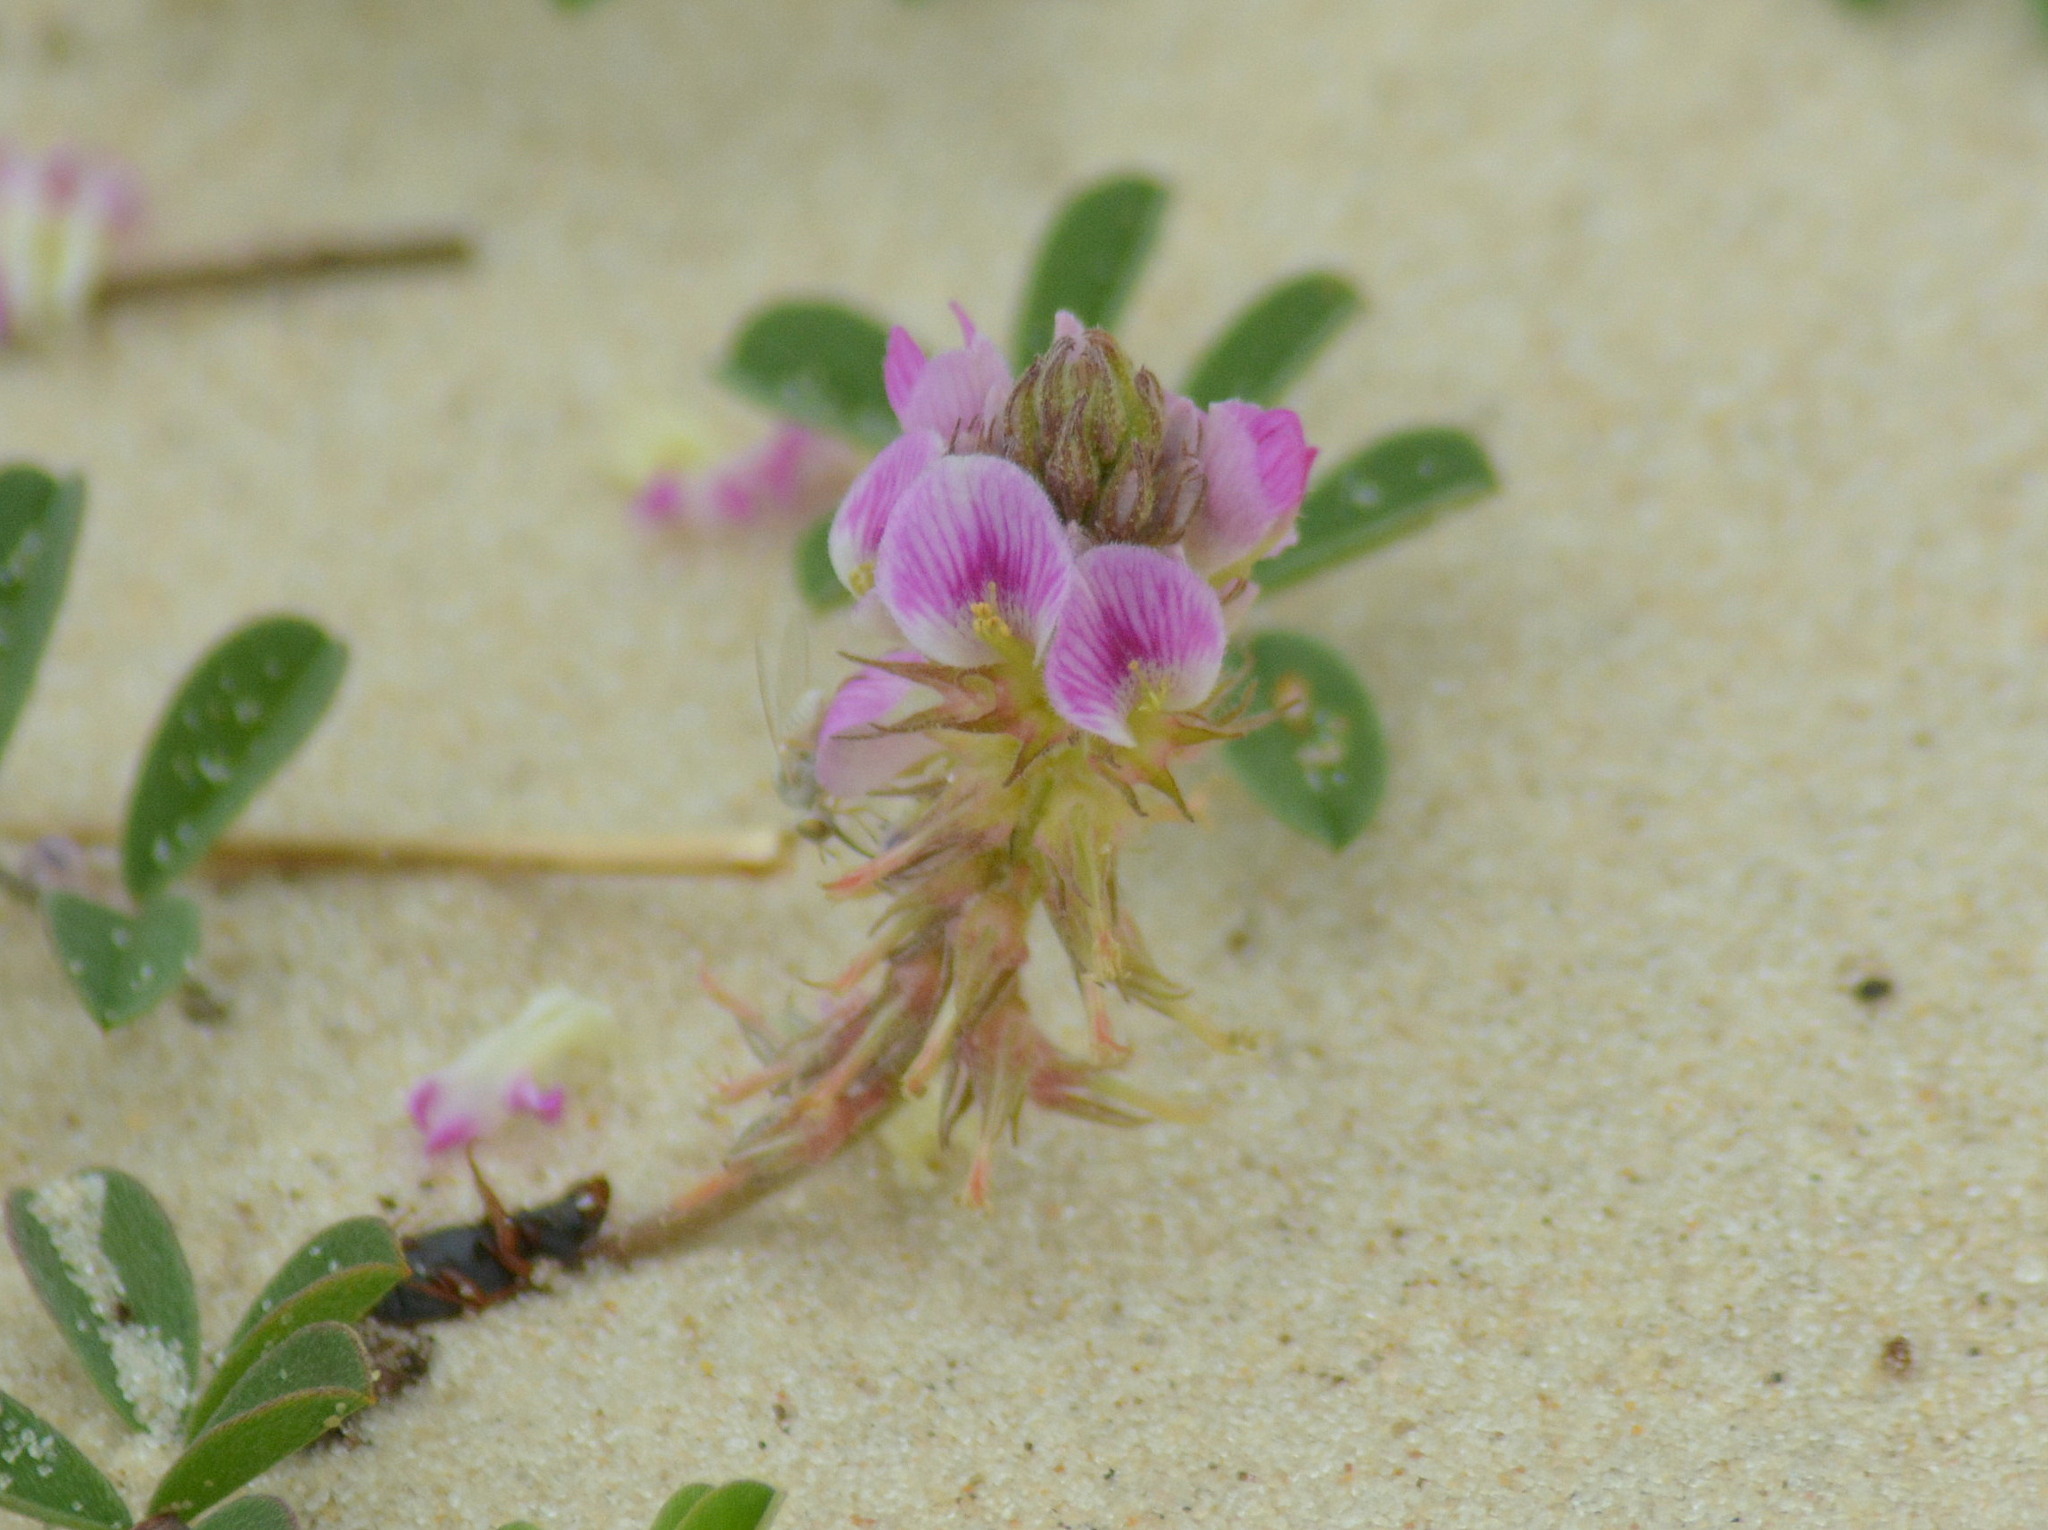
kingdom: Plantae
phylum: Tracheophyta
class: Magnoliopsida
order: Fabales
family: Fabaceae
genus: Indigofera
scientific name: Indigofera microcarpa
